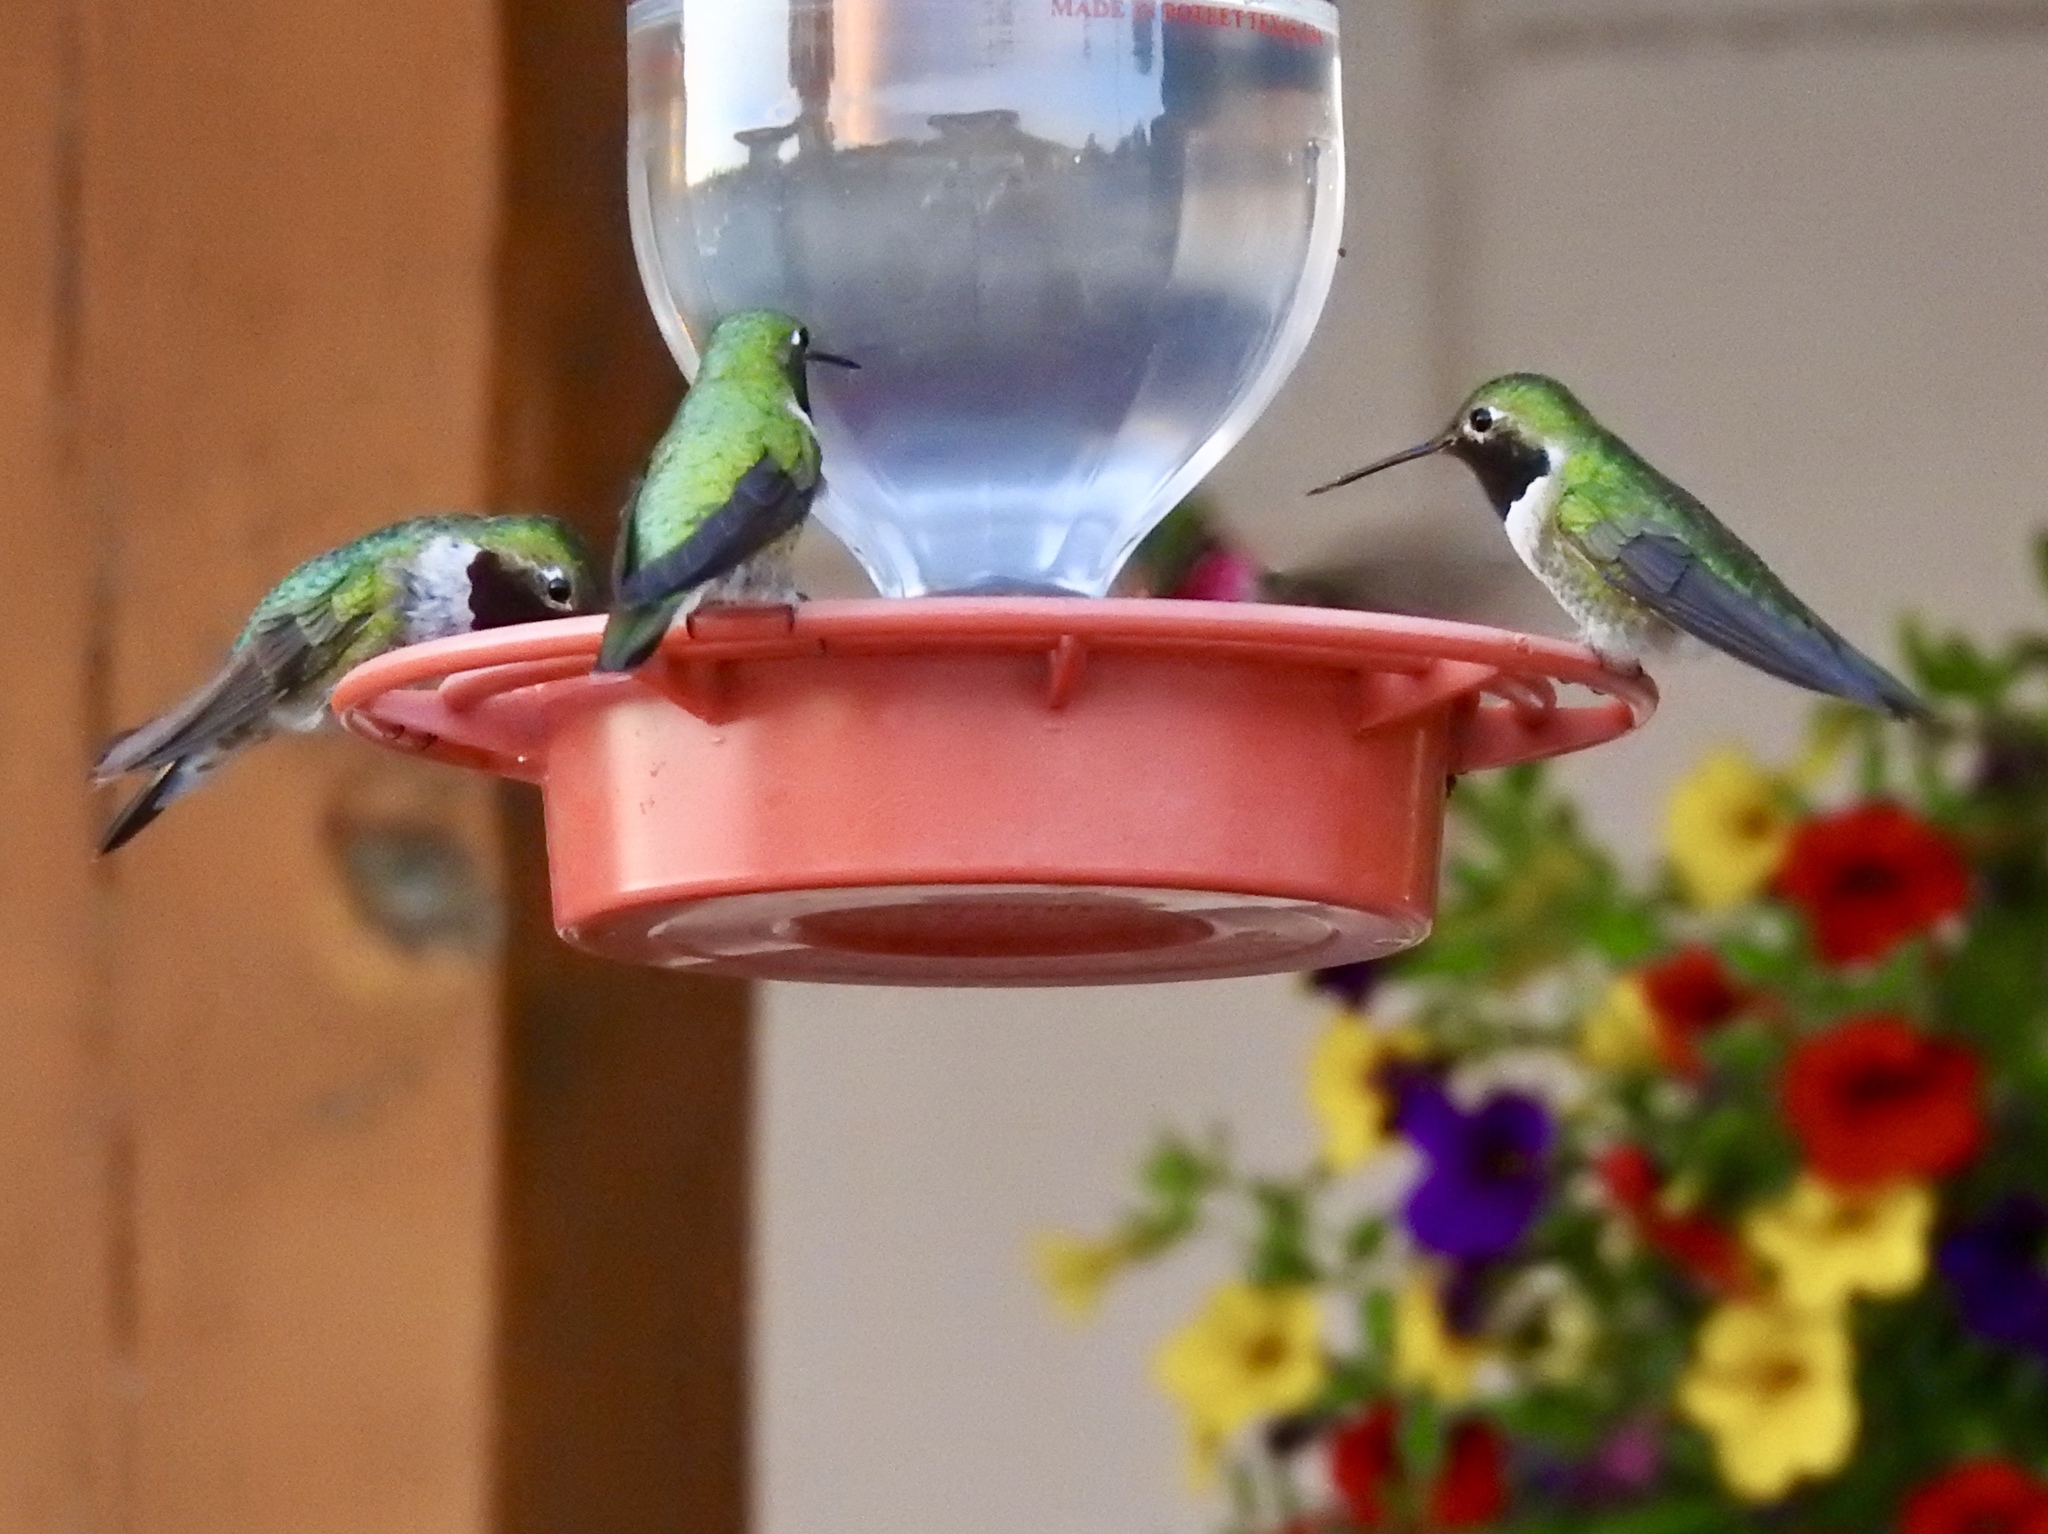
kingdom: Animalia
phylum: Chordata
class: Aves
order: Apodiformes
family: Trochilidae
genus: Selasphorus
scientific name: Selasphorus platycercus
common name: Broad-tailed hummingbird
